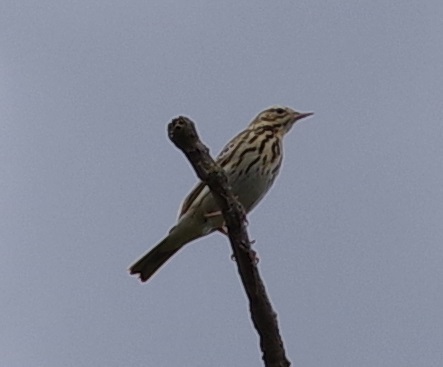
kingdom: Animalia
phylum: Chordata
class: Aves
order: Passeriformes
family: Motacillidae
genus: Anthus
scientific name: Anthus trivialis
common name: Tree pipit
